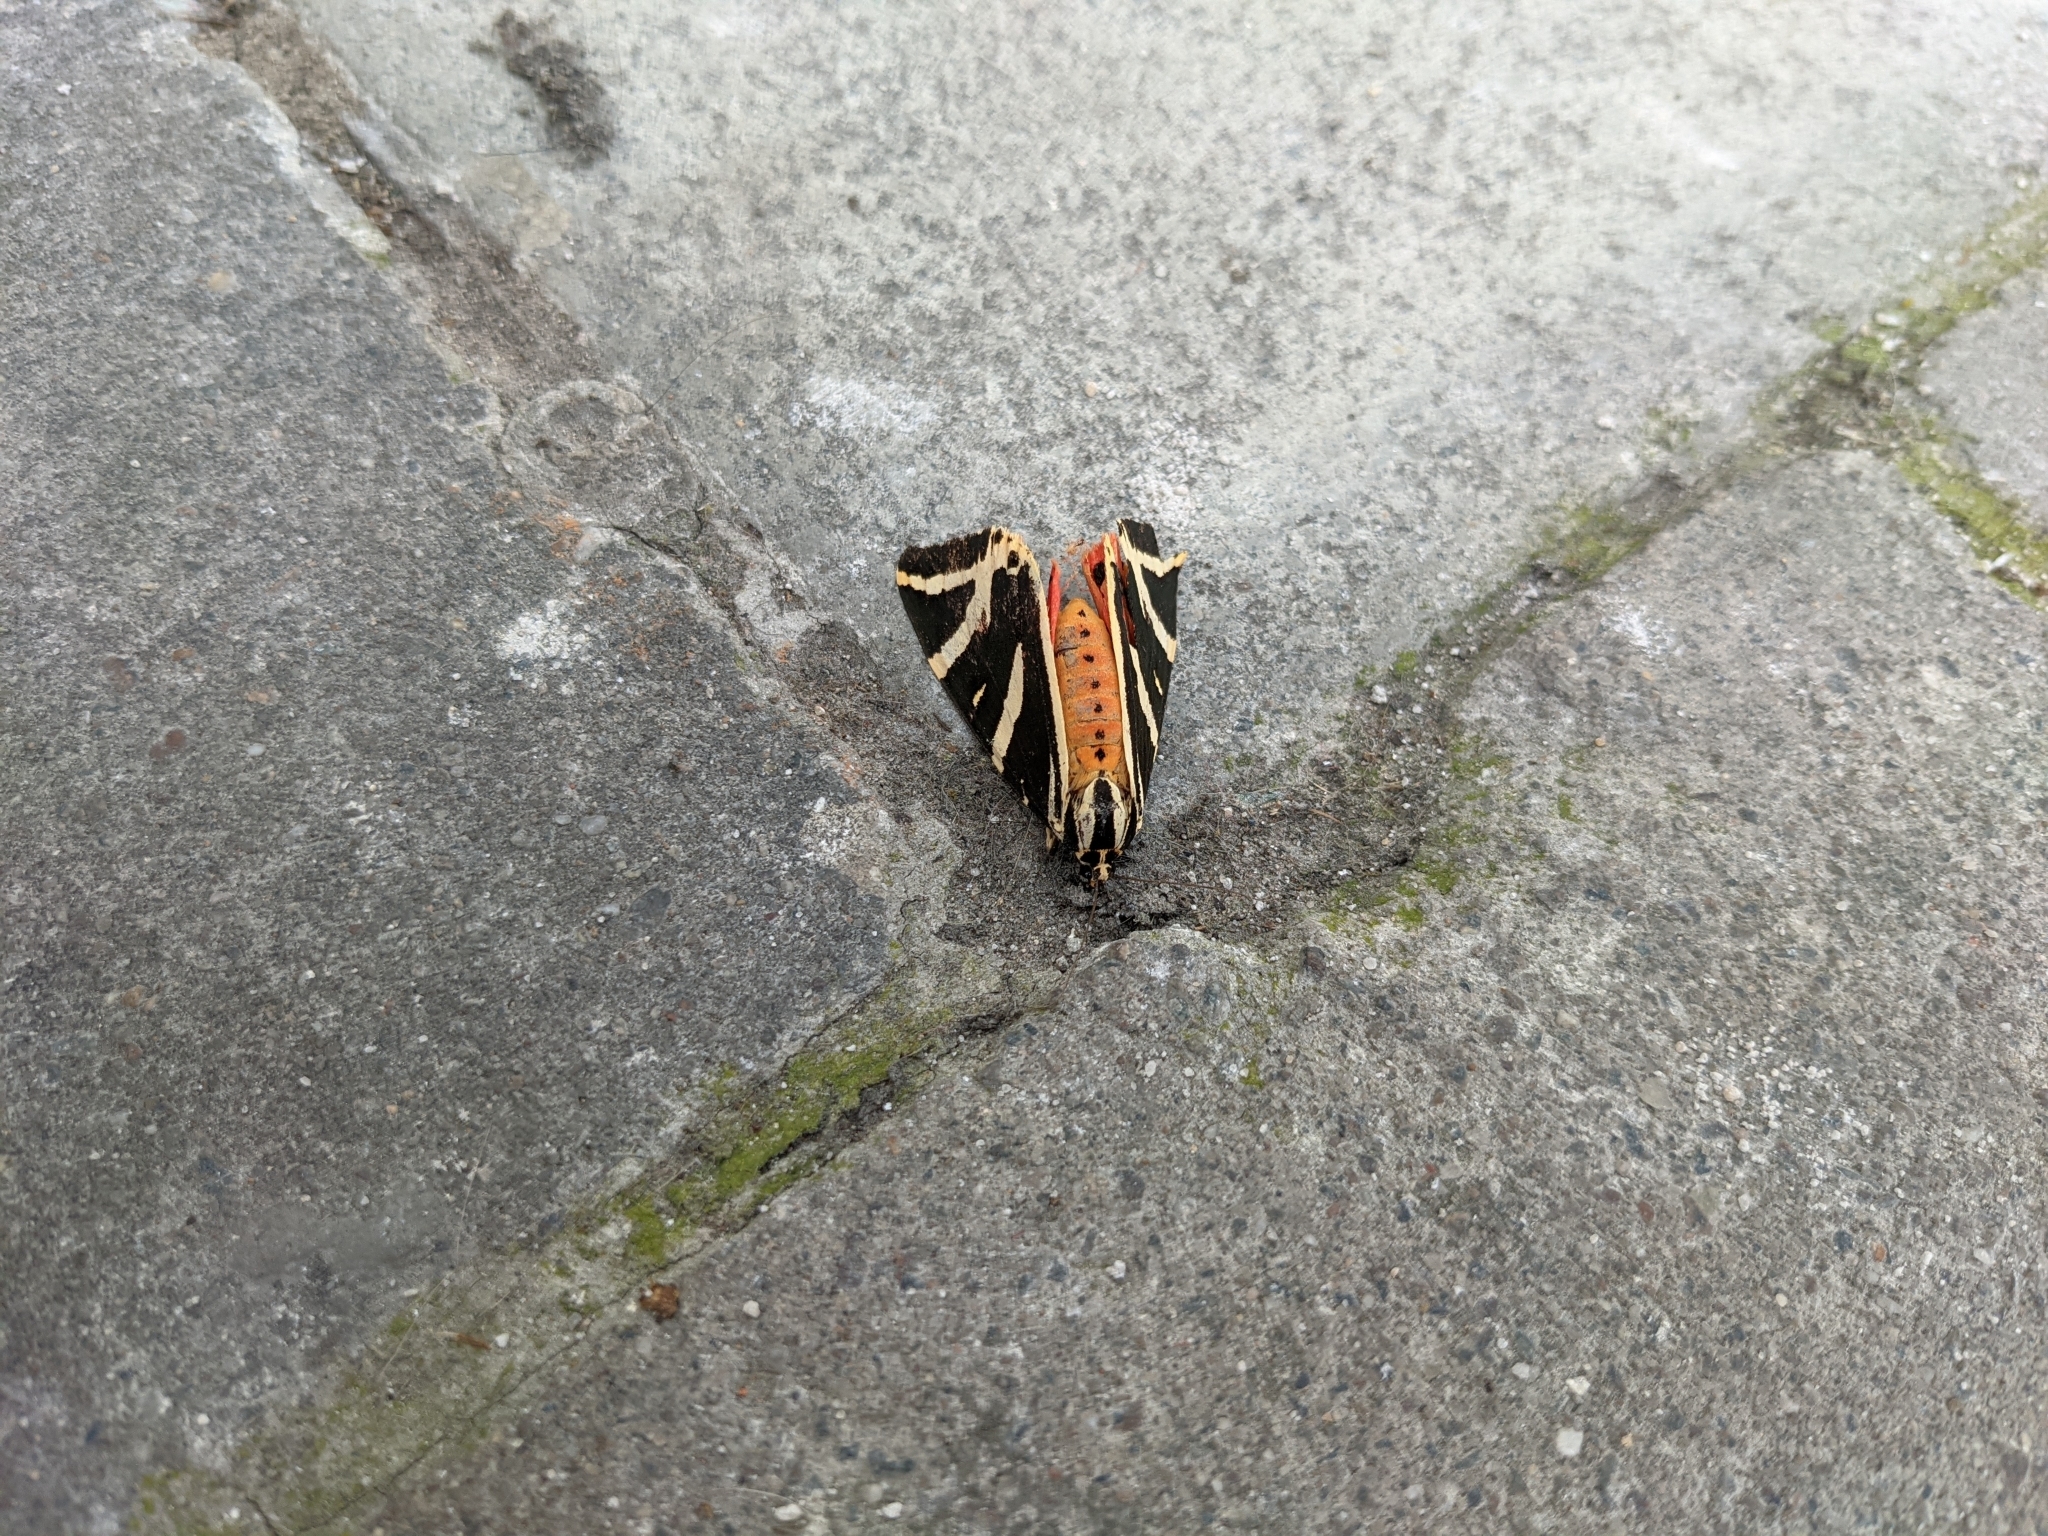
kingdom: Animalia
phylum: Arthropoda
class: Insecta
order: Lepidoptera
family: Erebidae
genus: Euplagia
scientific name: Euplagia quadripunctaria
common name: Jersey tiger
